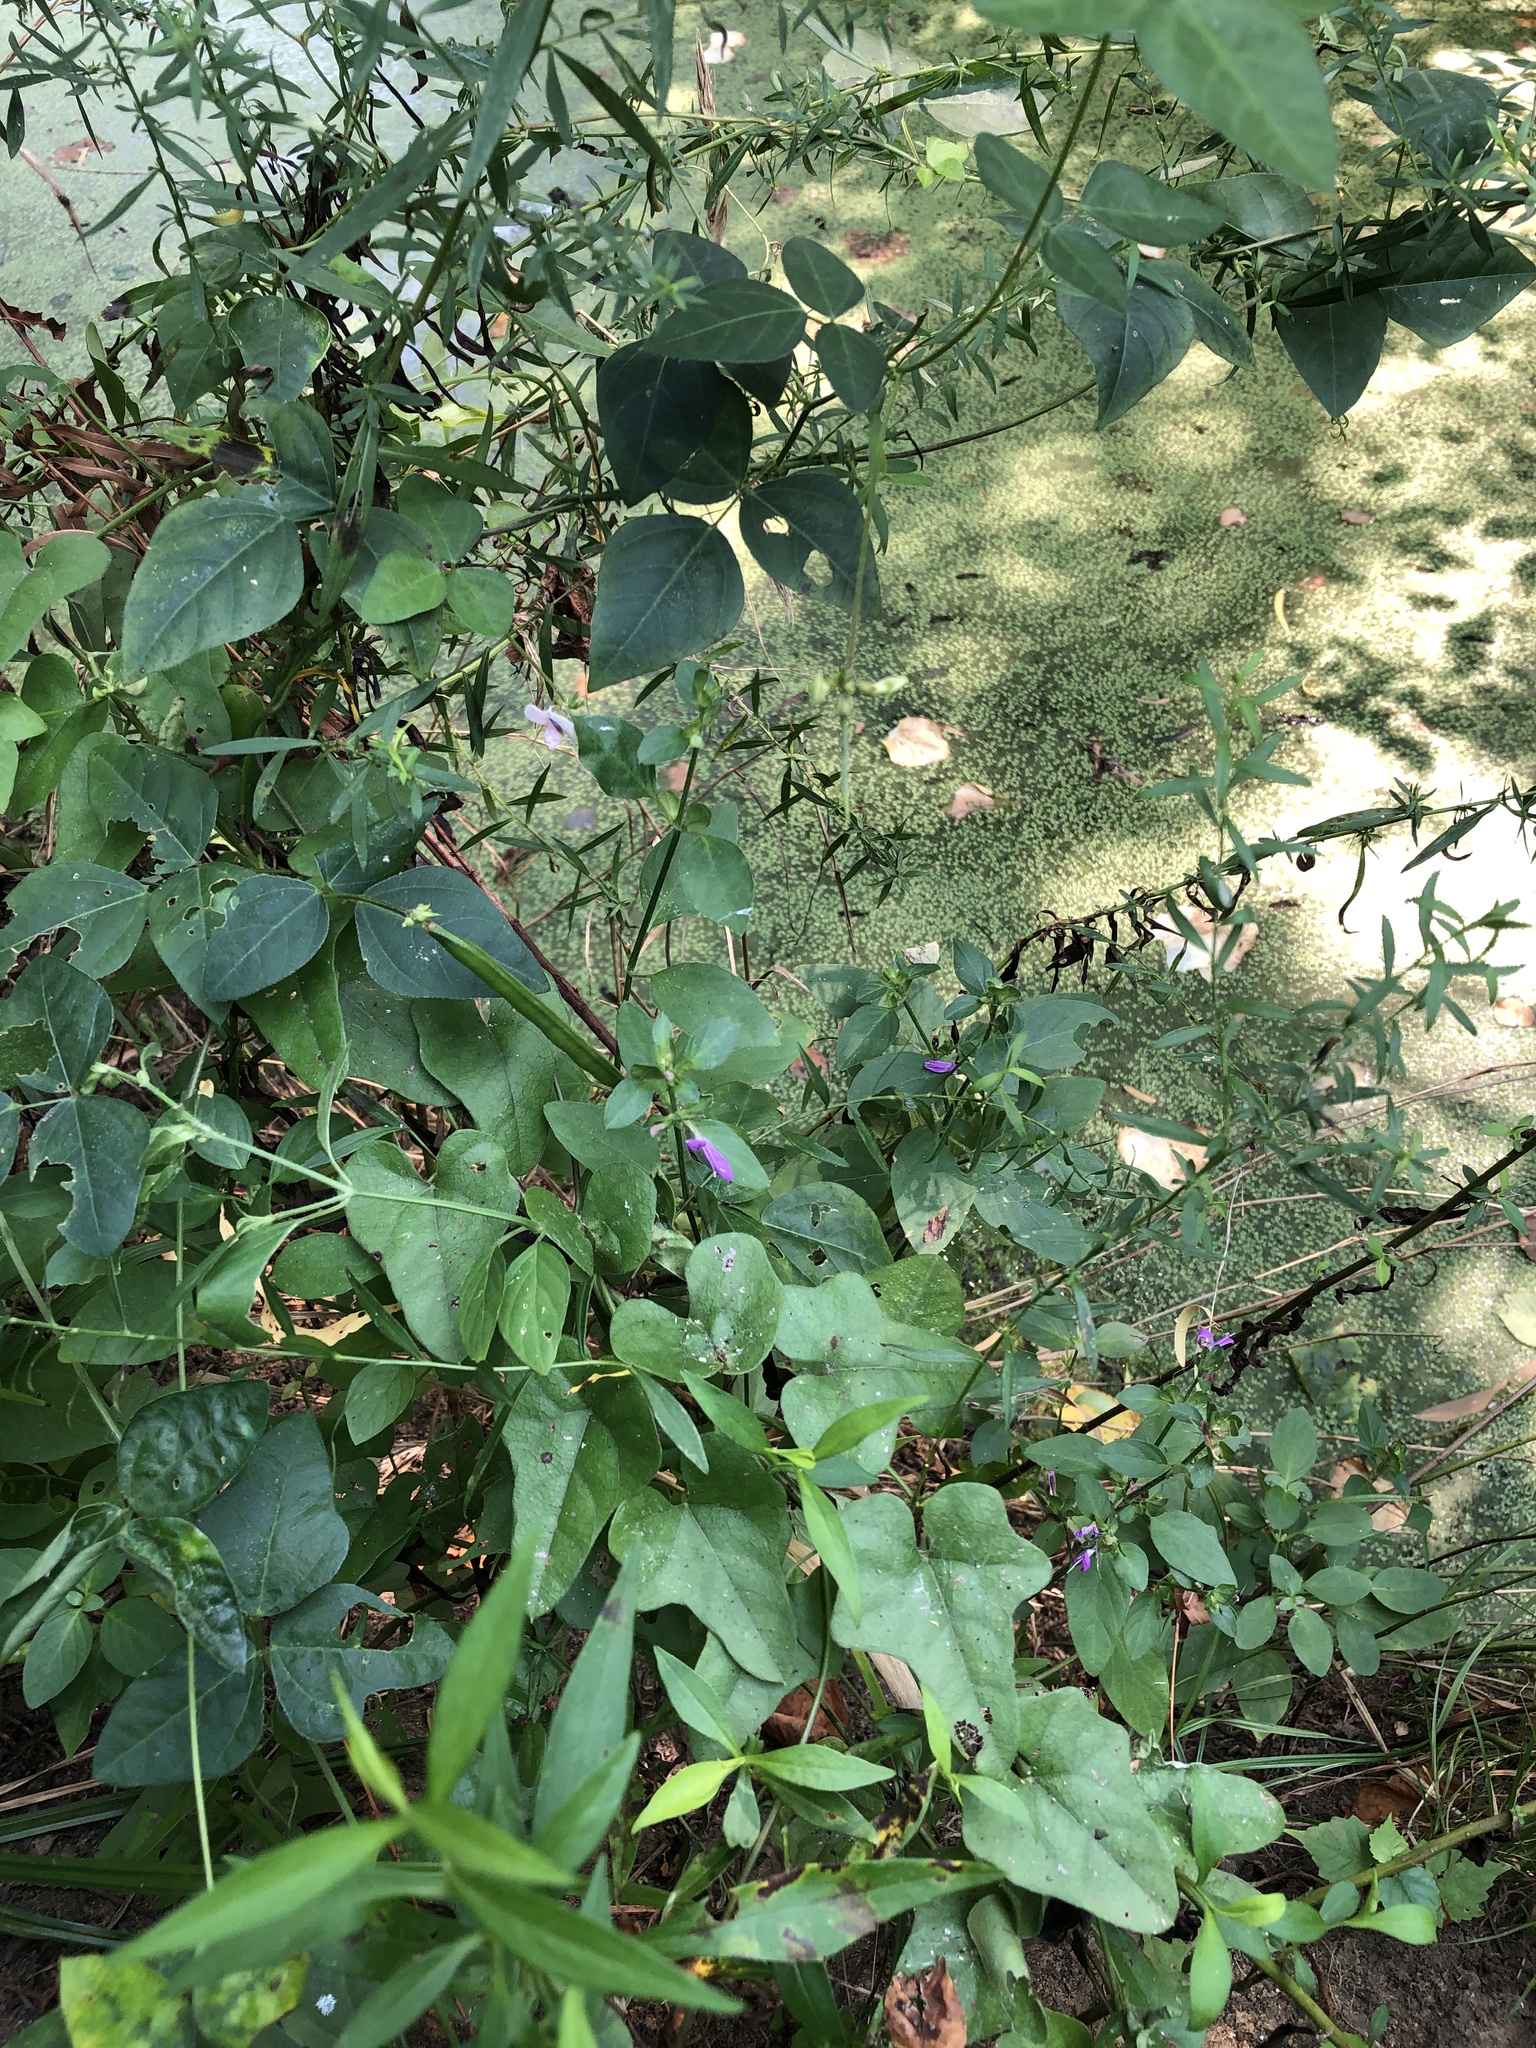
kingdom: Plantae
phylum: Tracheophyta
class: Magnoliopsida
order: Lamiales
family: Acanthaceae
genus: Dicliptera
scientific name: Dicliptera brachiata
